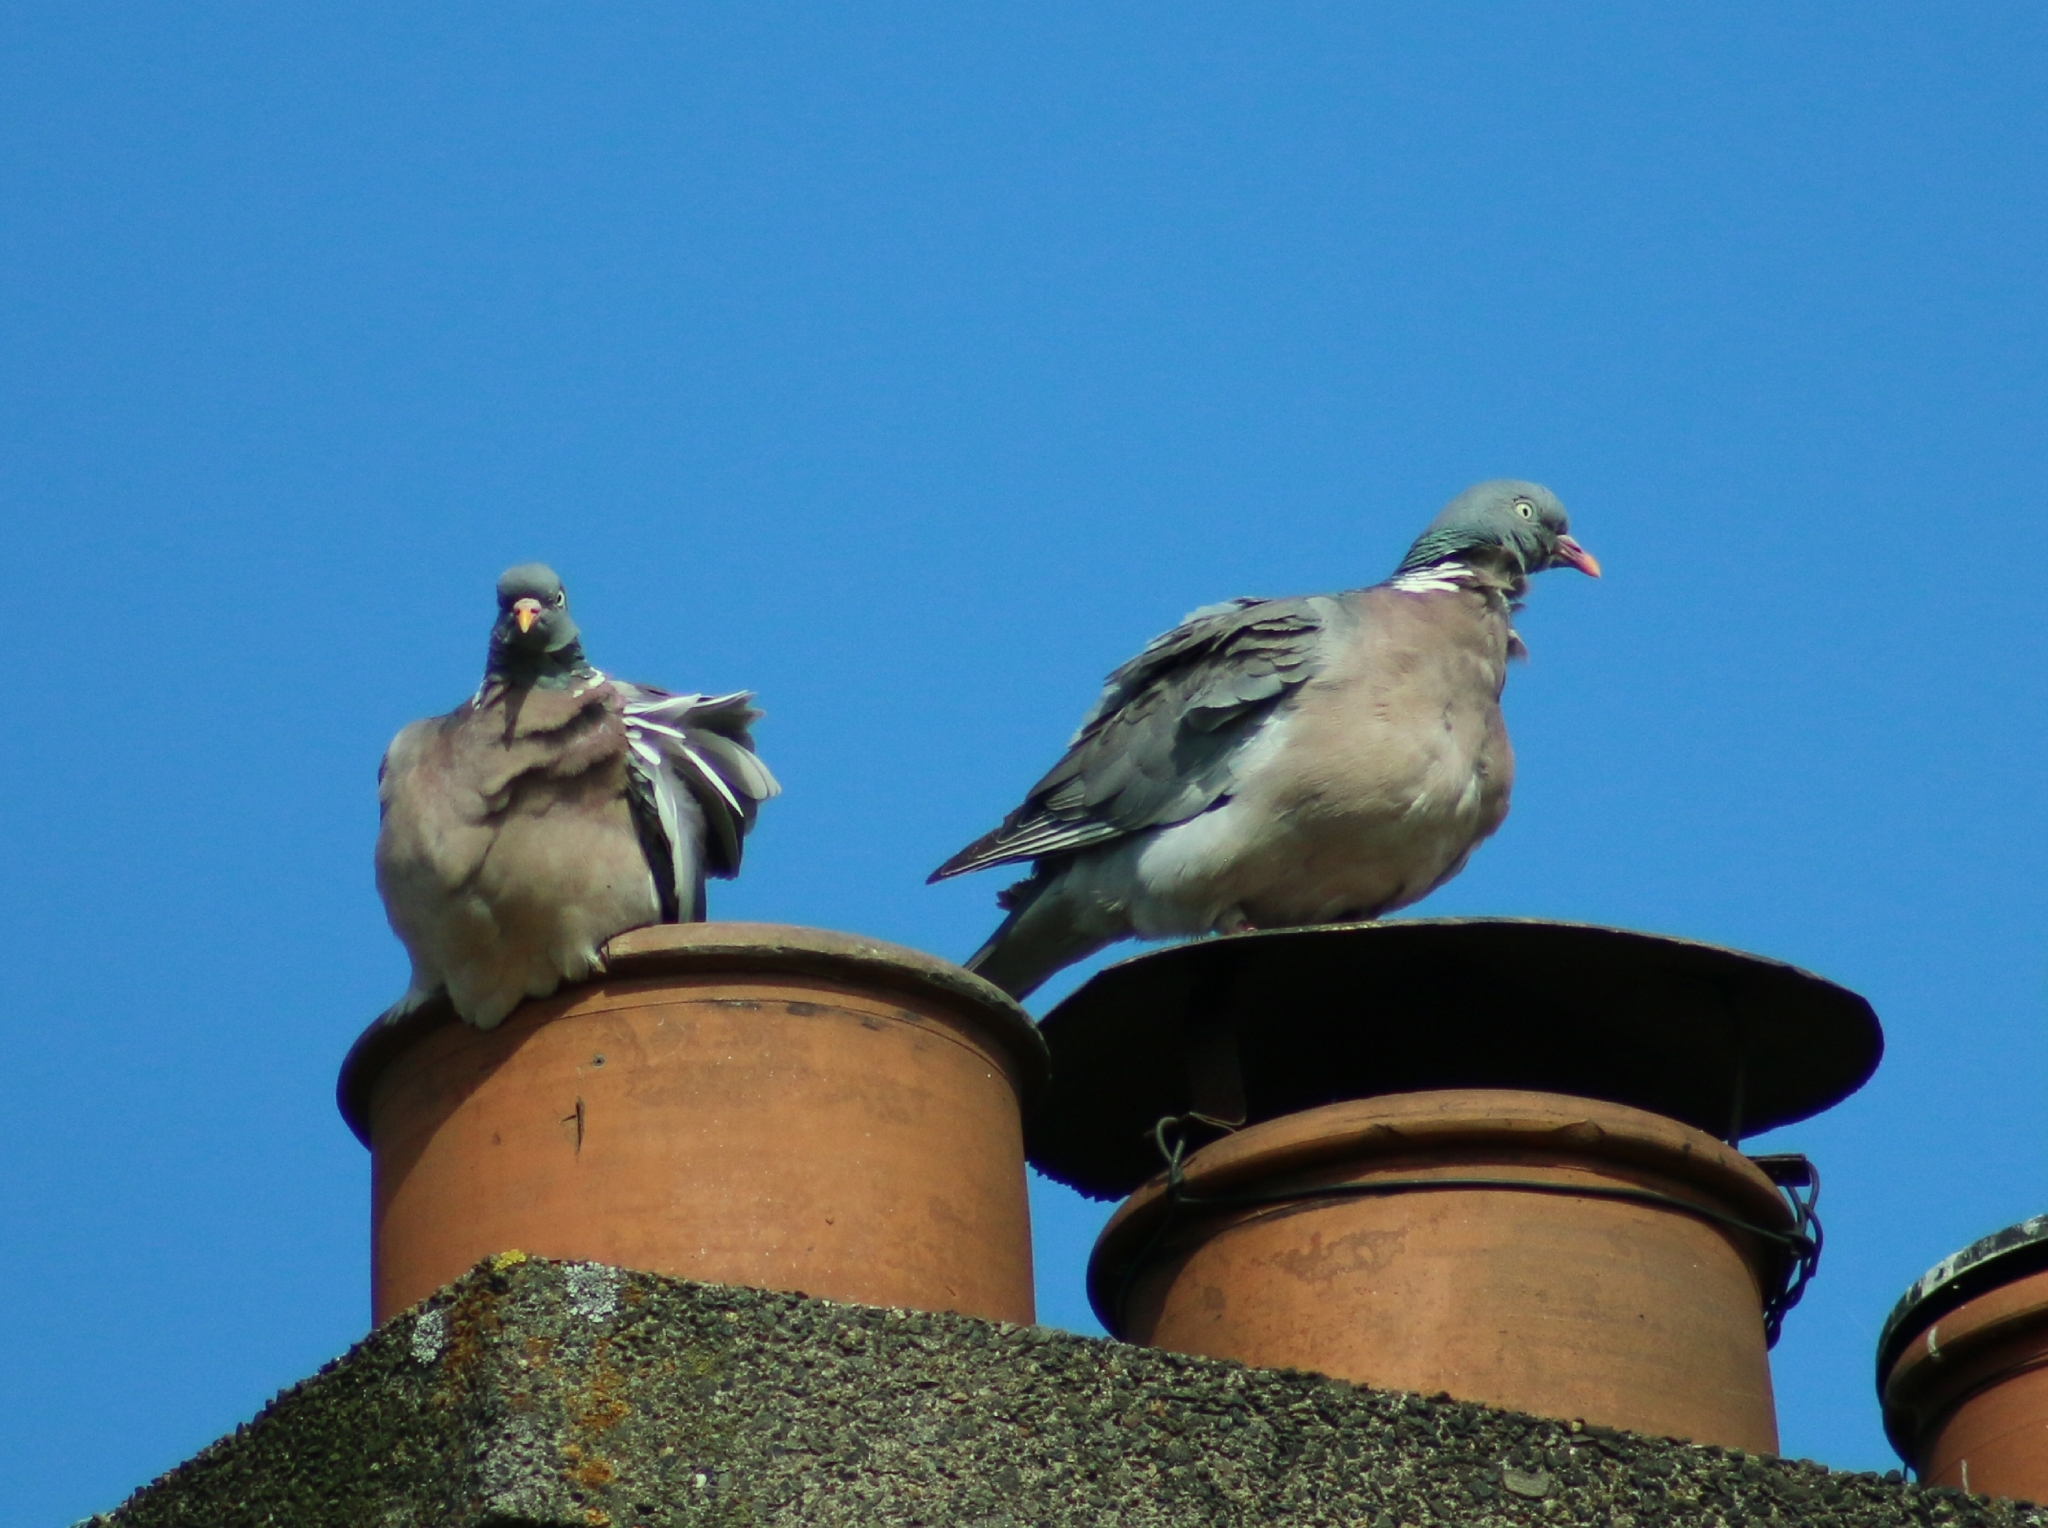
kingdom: Animalia
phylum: Chordata
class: Aves
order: Columbiformes
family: Columbidae
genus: Columba
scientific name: Columba palumbus
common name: Common wood pigeon
